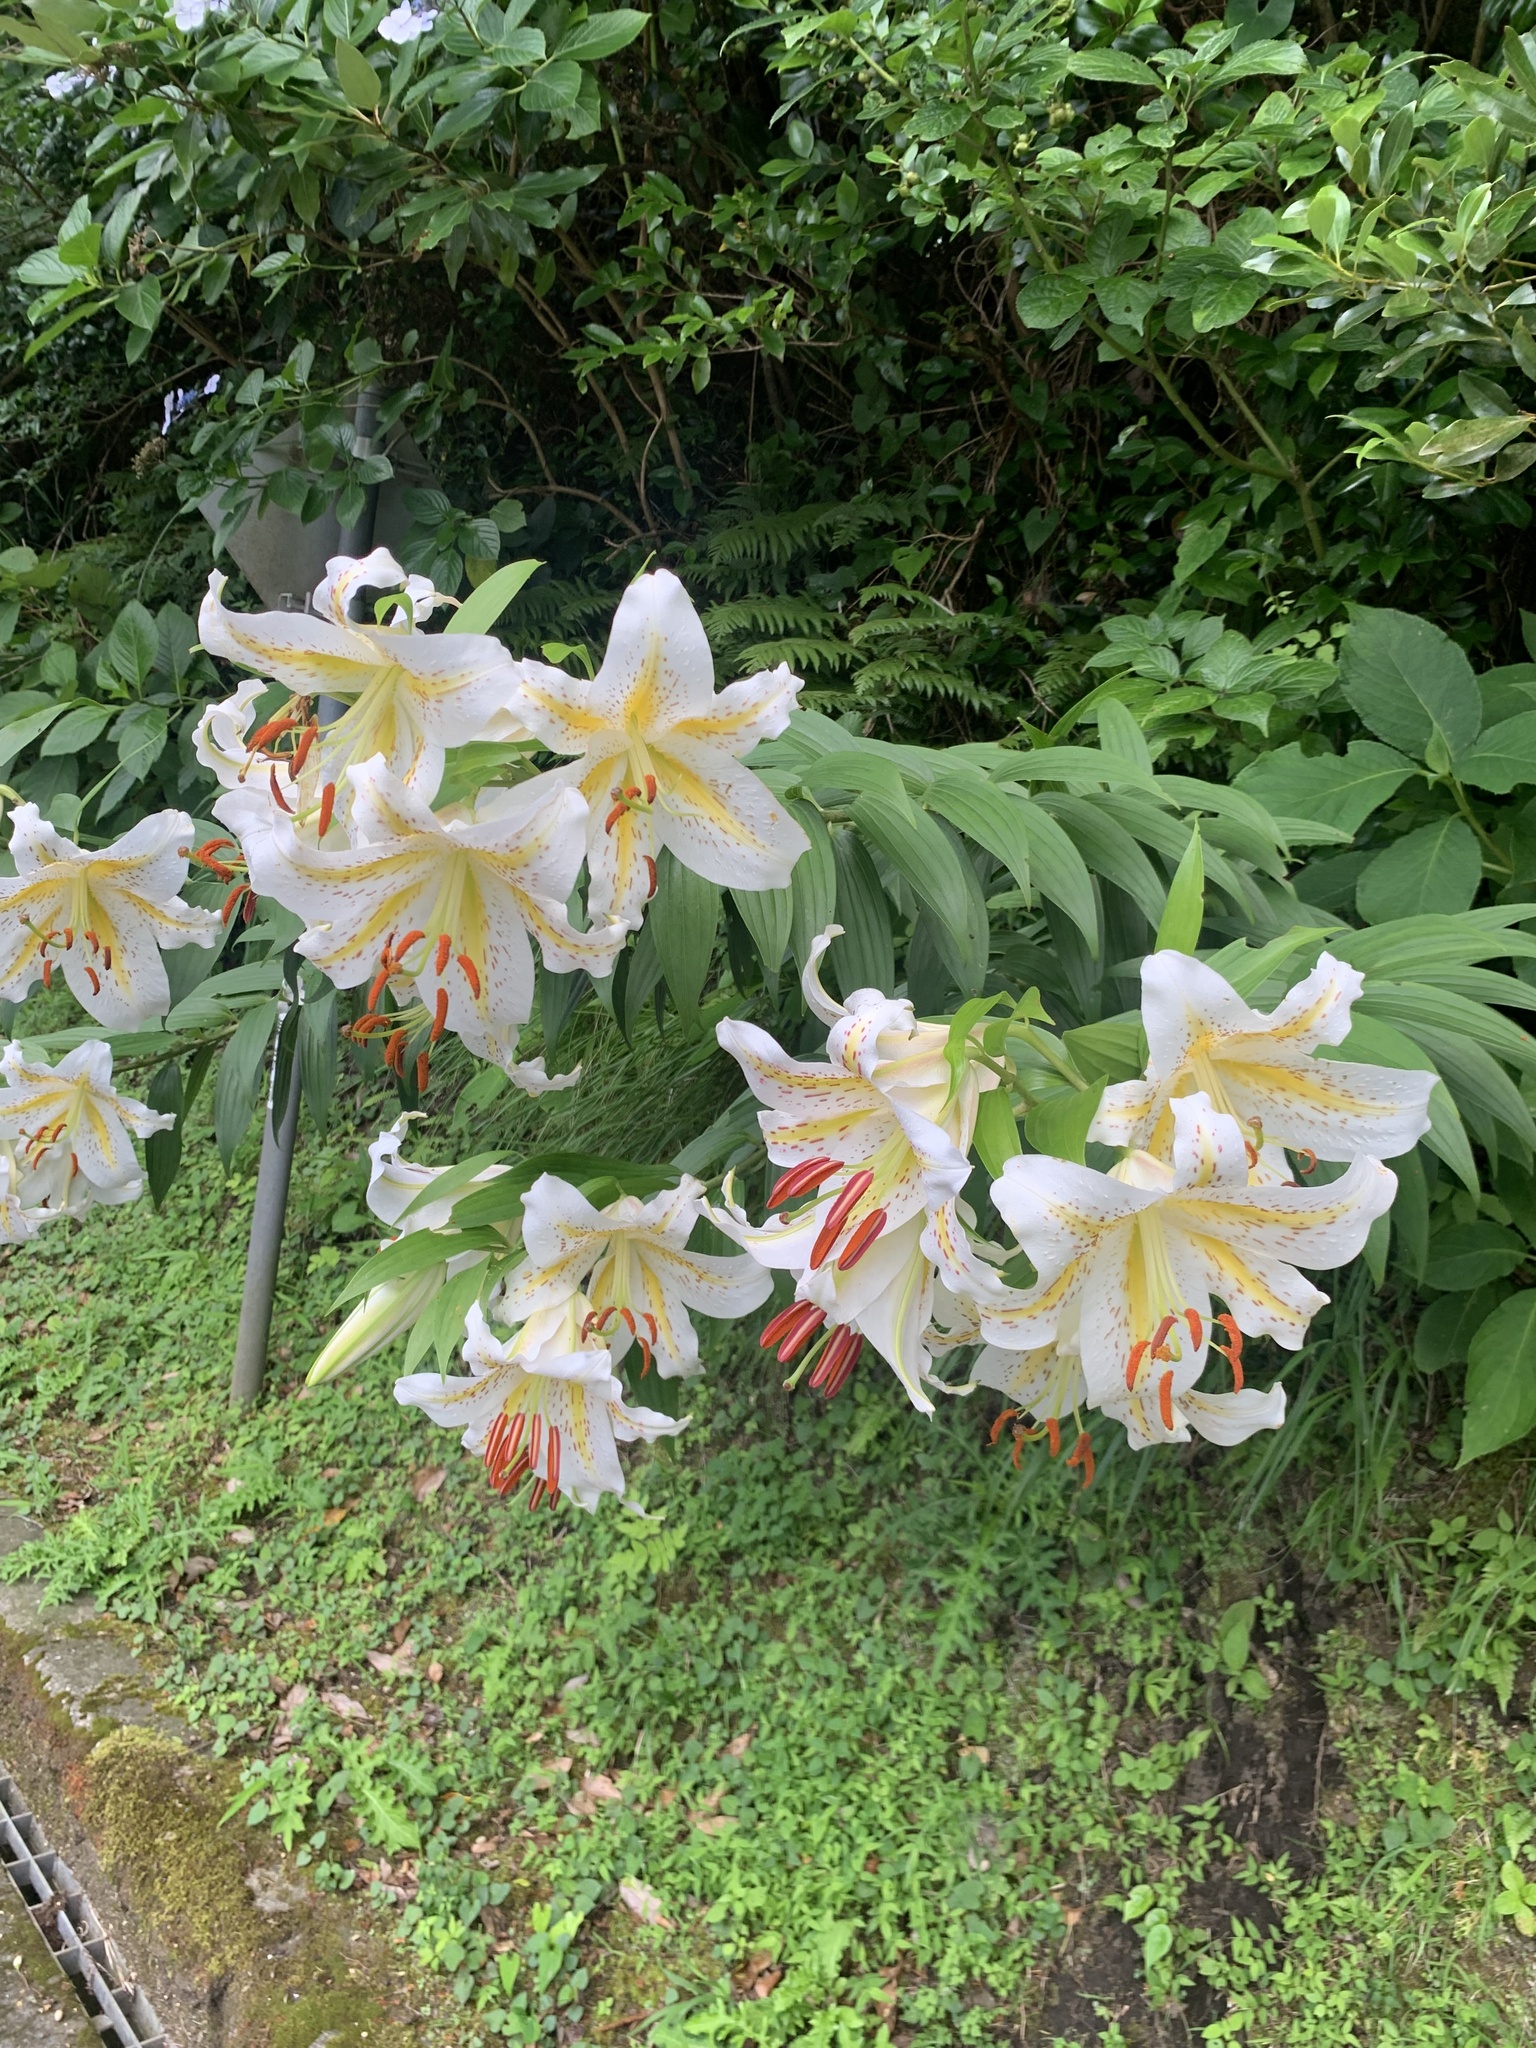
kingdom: Plantae
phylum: Tracheophyta
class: Liliopsida
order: Liliales
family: Liliaceae
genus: Lilium
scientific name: Lilium auratum
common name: Golden-ray lily
